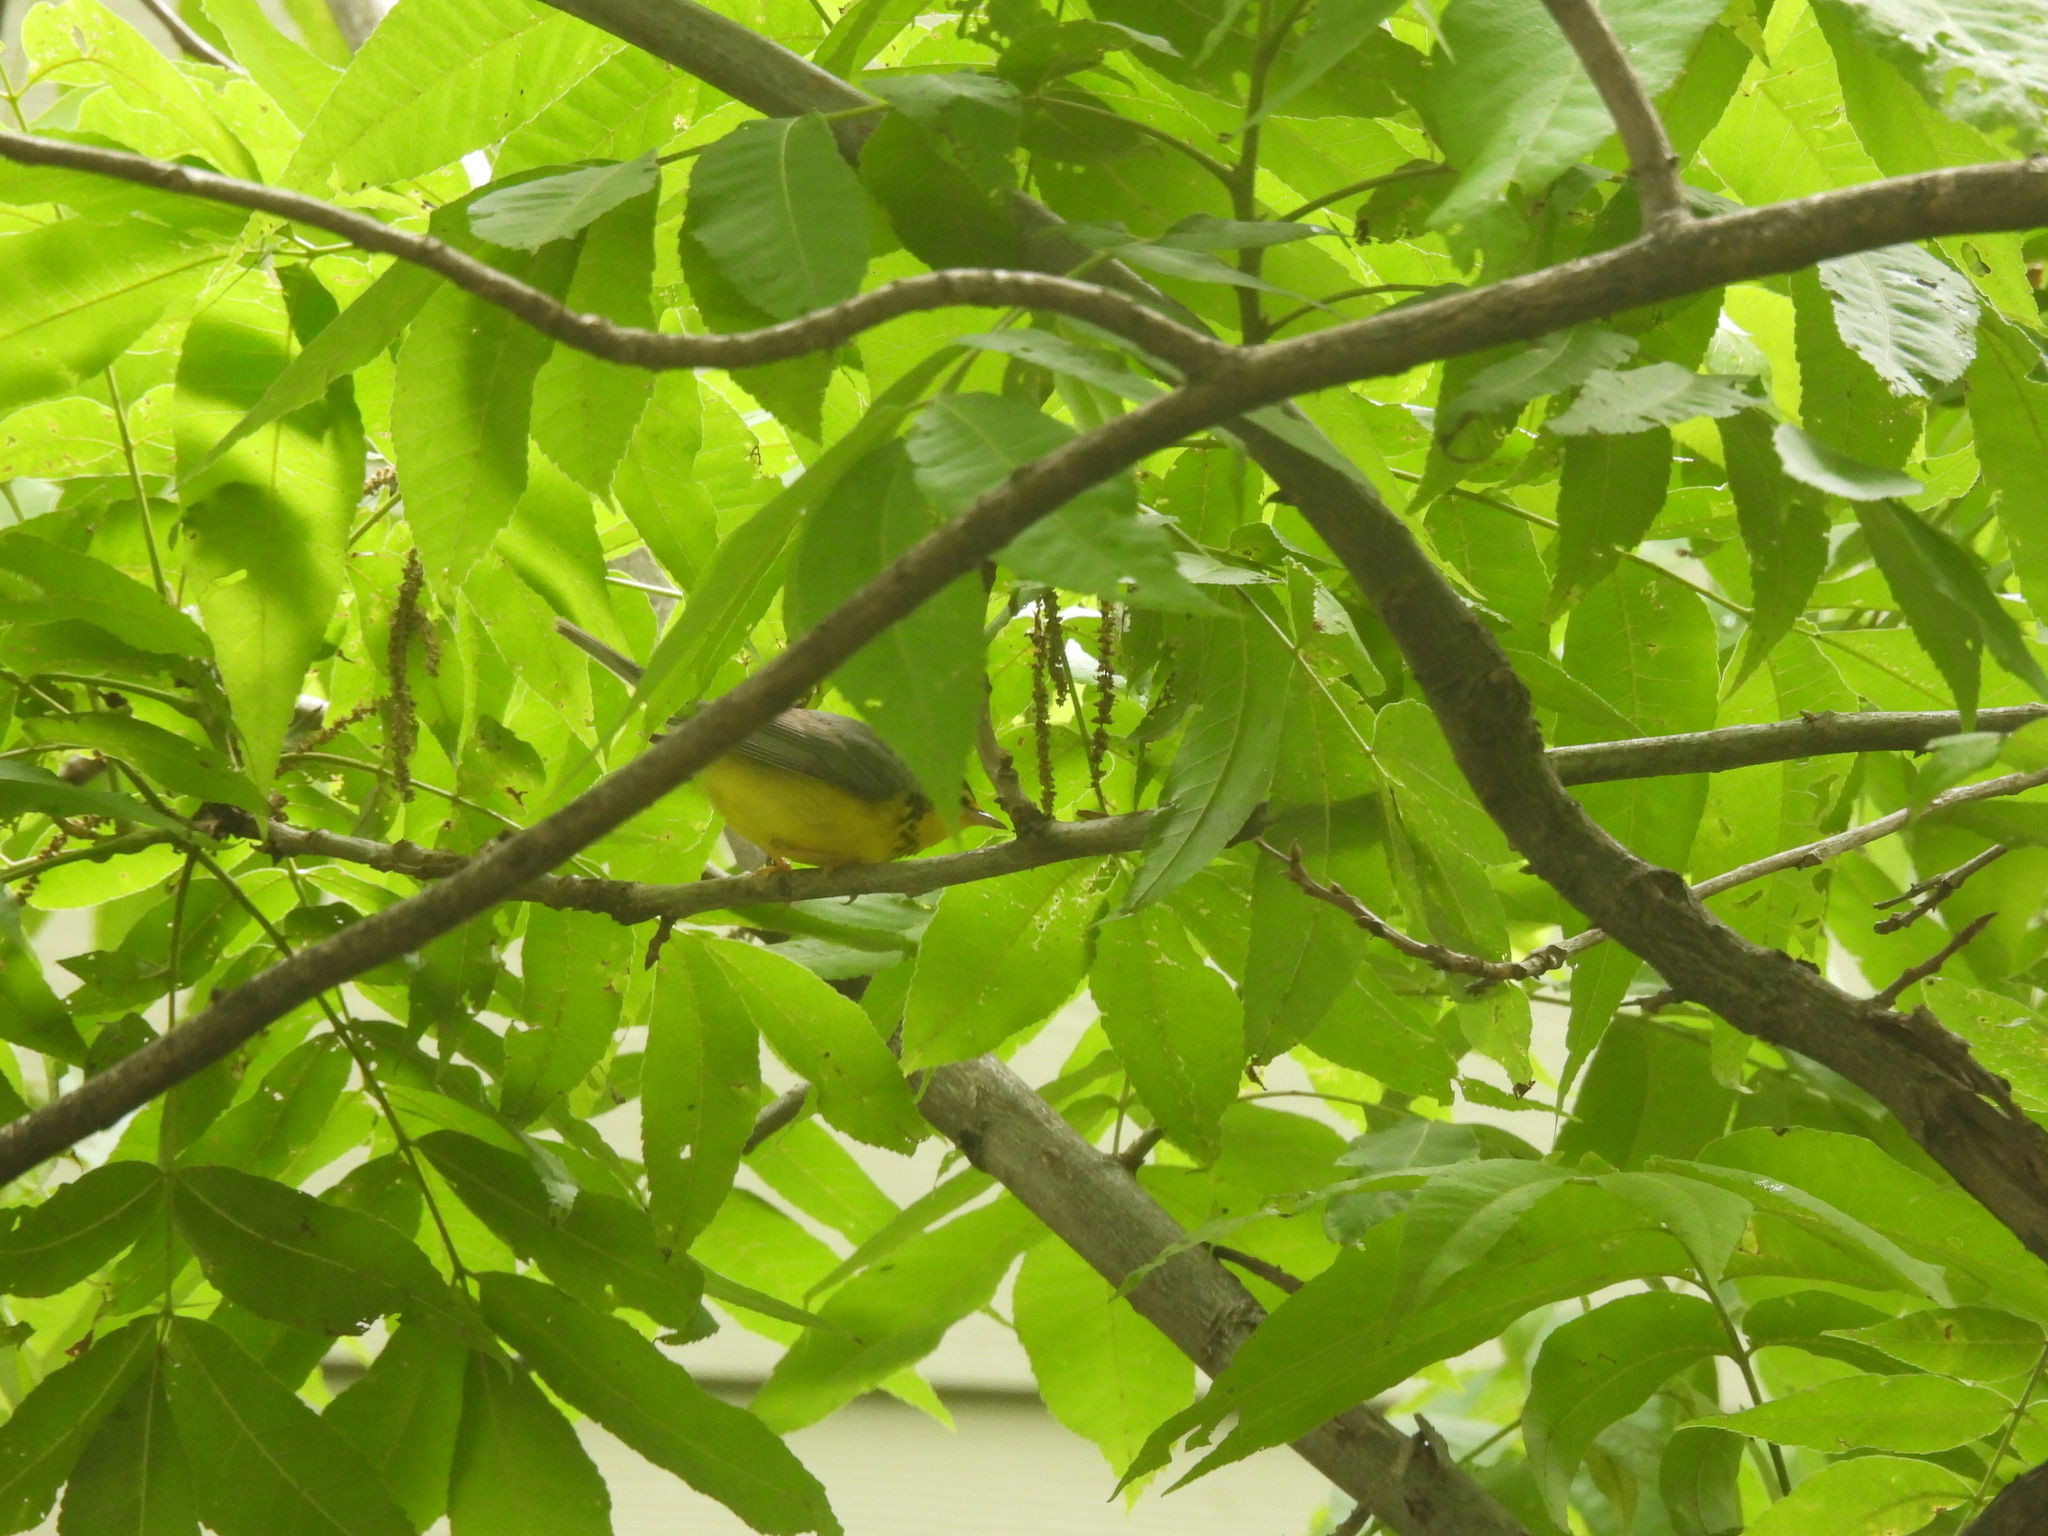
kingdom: Animalia
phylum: Chordata
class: Aves
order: Passeriformes
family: Parulidae
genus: Cardellina
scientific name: Cardellina canadensis
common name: Canada warbler
